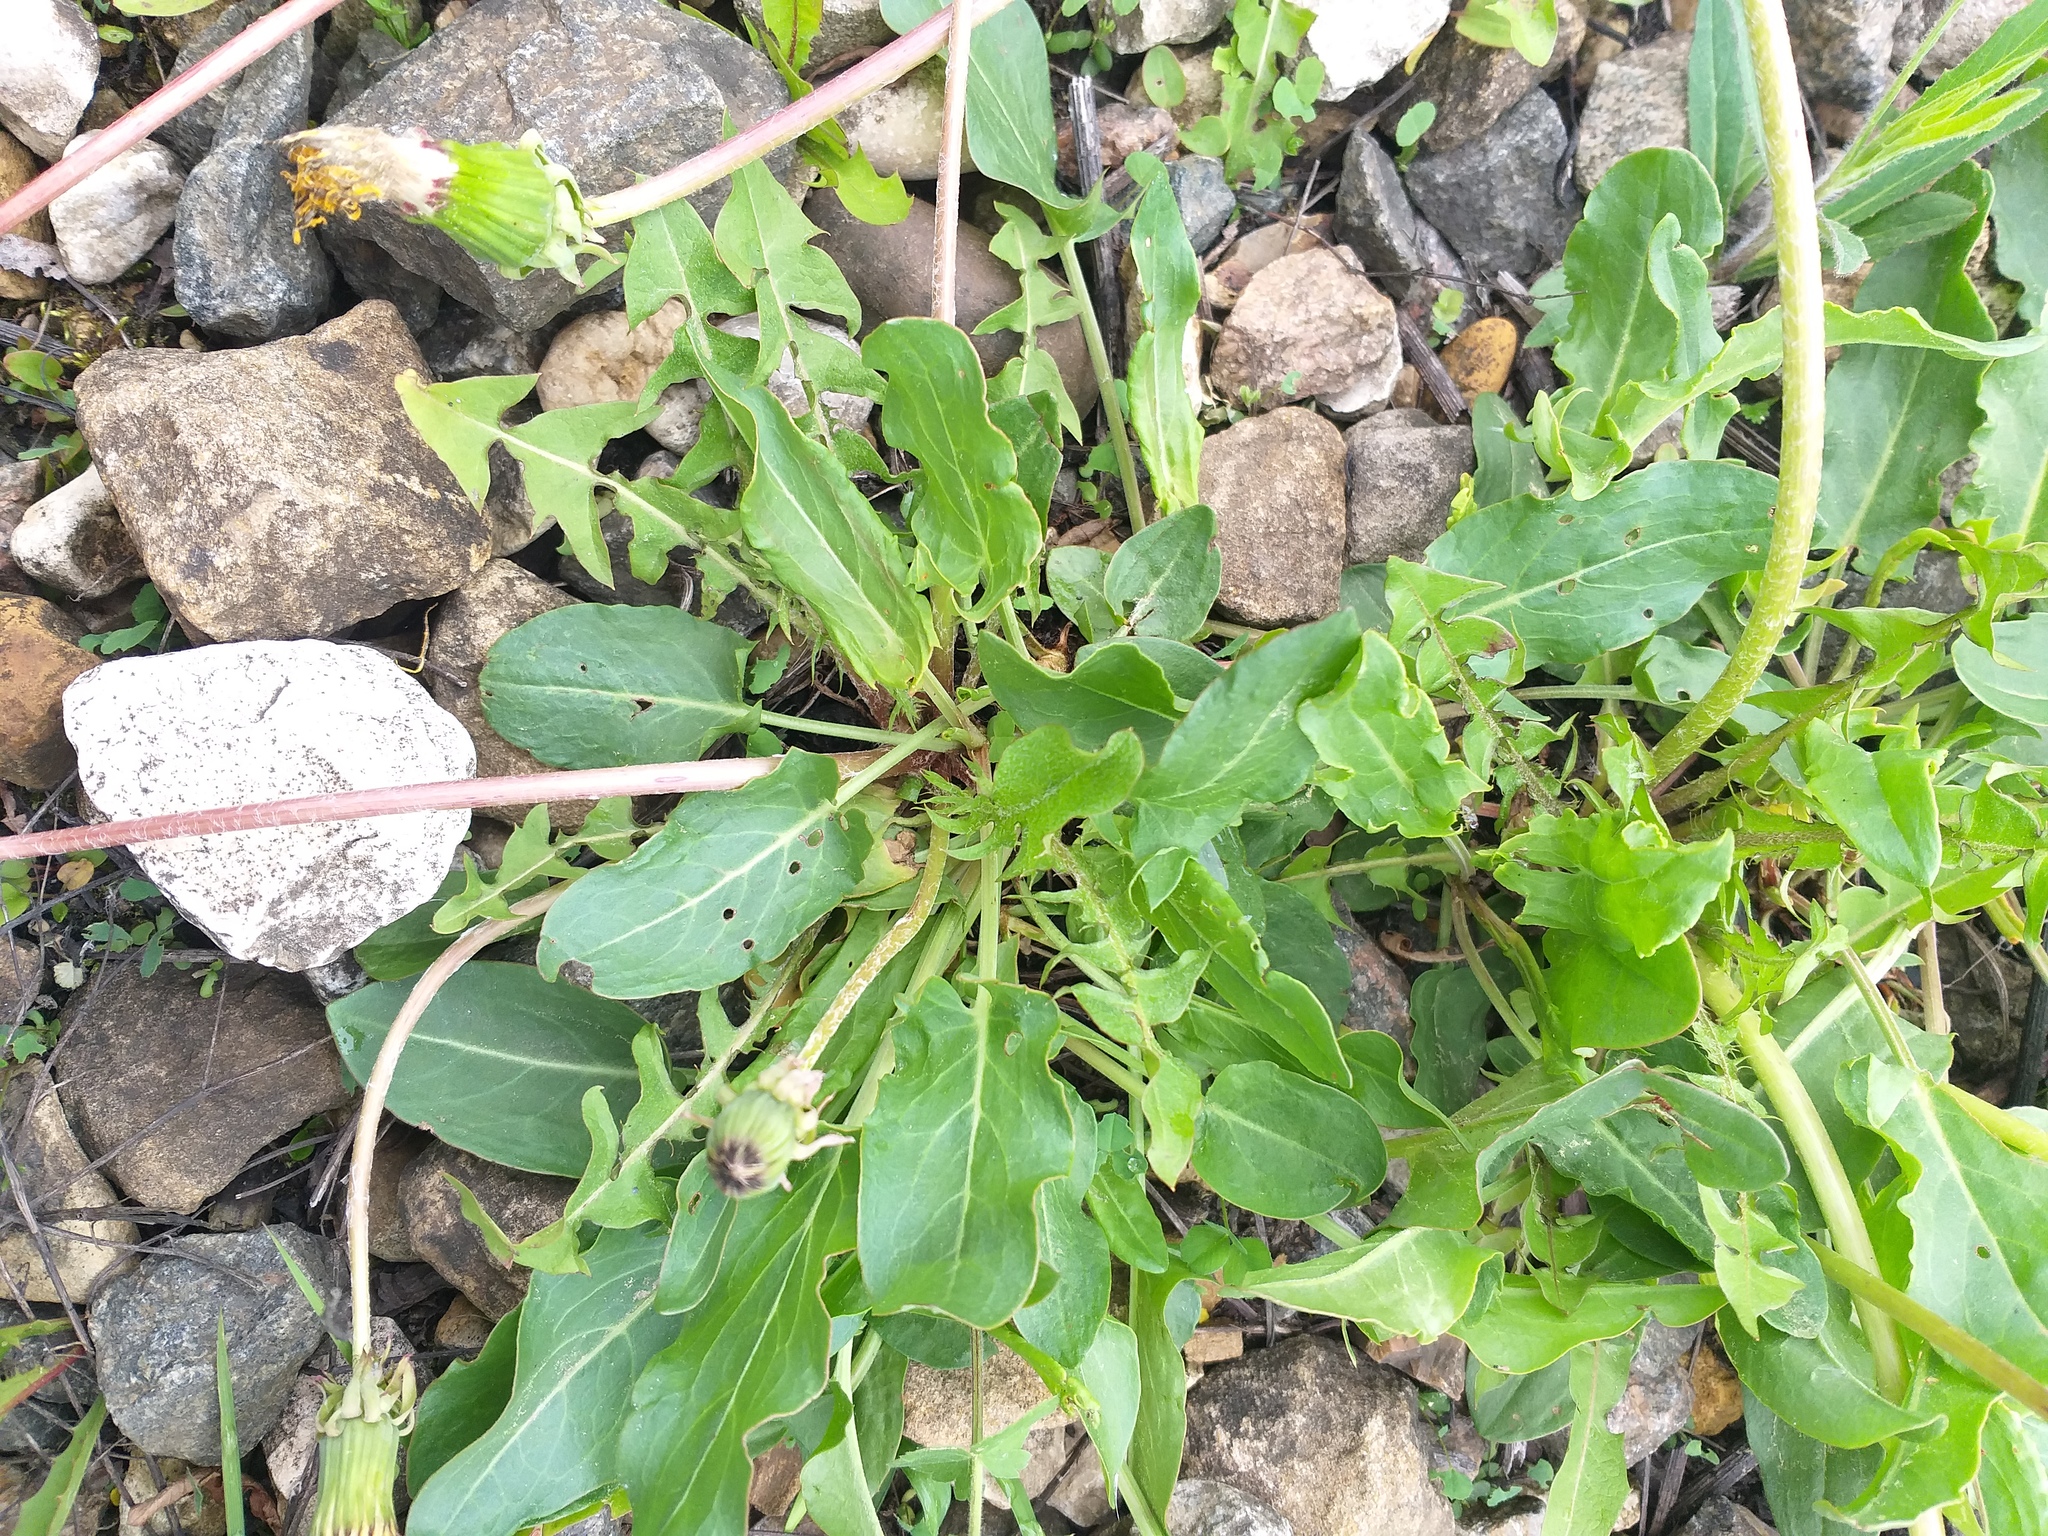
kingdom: Plantae
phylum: Tracheophyta
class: Magnoliopsida
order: Caryophyllales
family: Polygonaceae
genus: Rumex
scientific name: Rumex thyrsiflorus
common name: Garden sorrel
